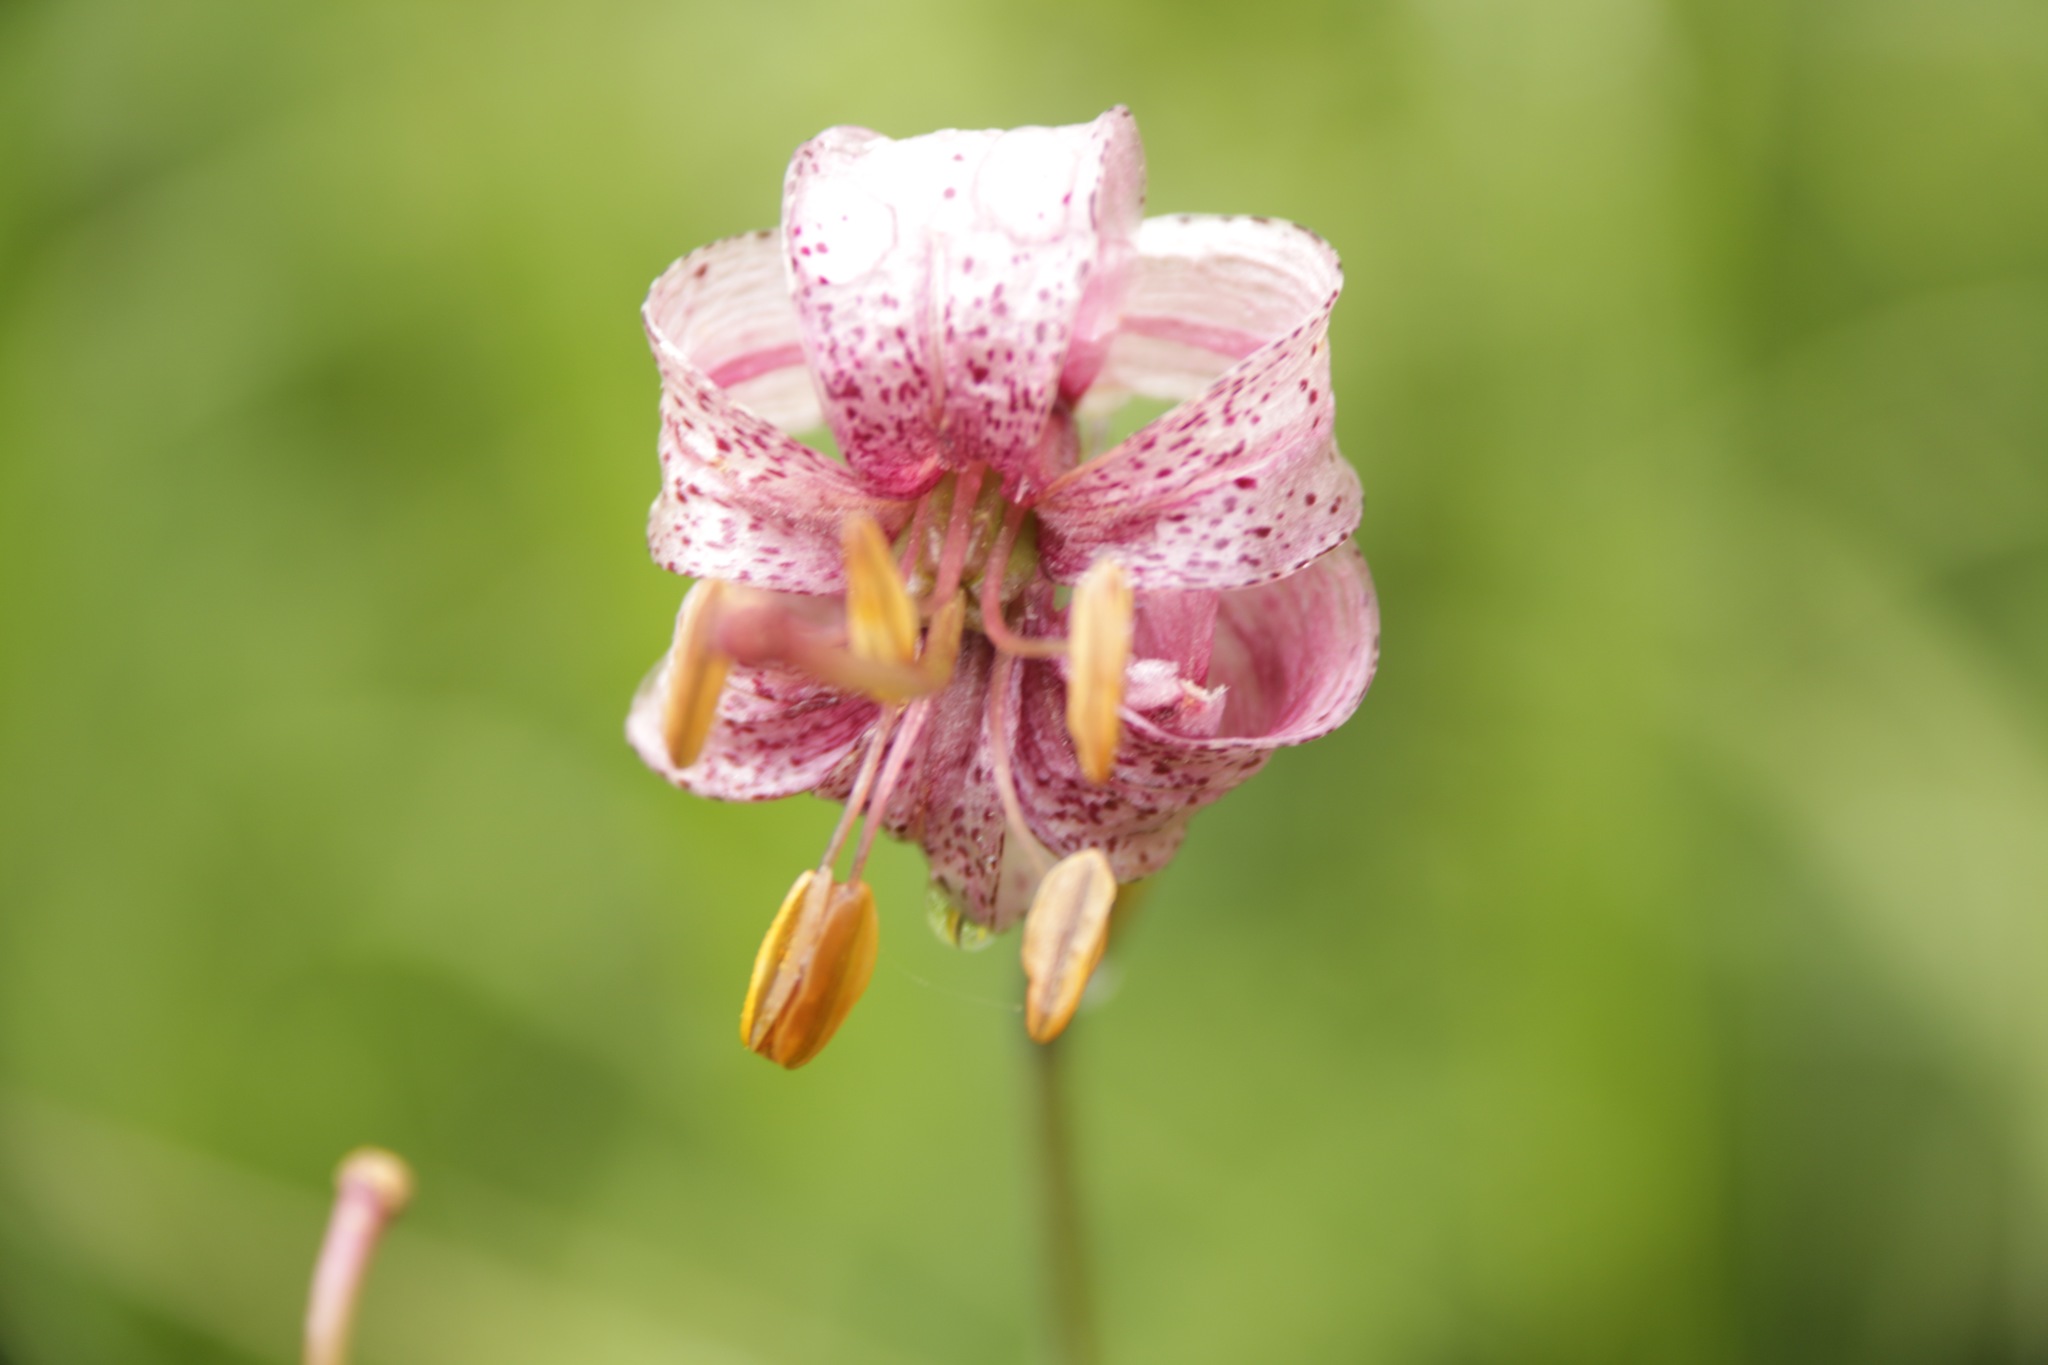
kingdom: Plantae
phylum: Tracheophyta
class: Liliopsida
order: Liliales
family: Liliaceae
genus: Lilium
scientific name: Lilium martagon
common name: Martagon lily
